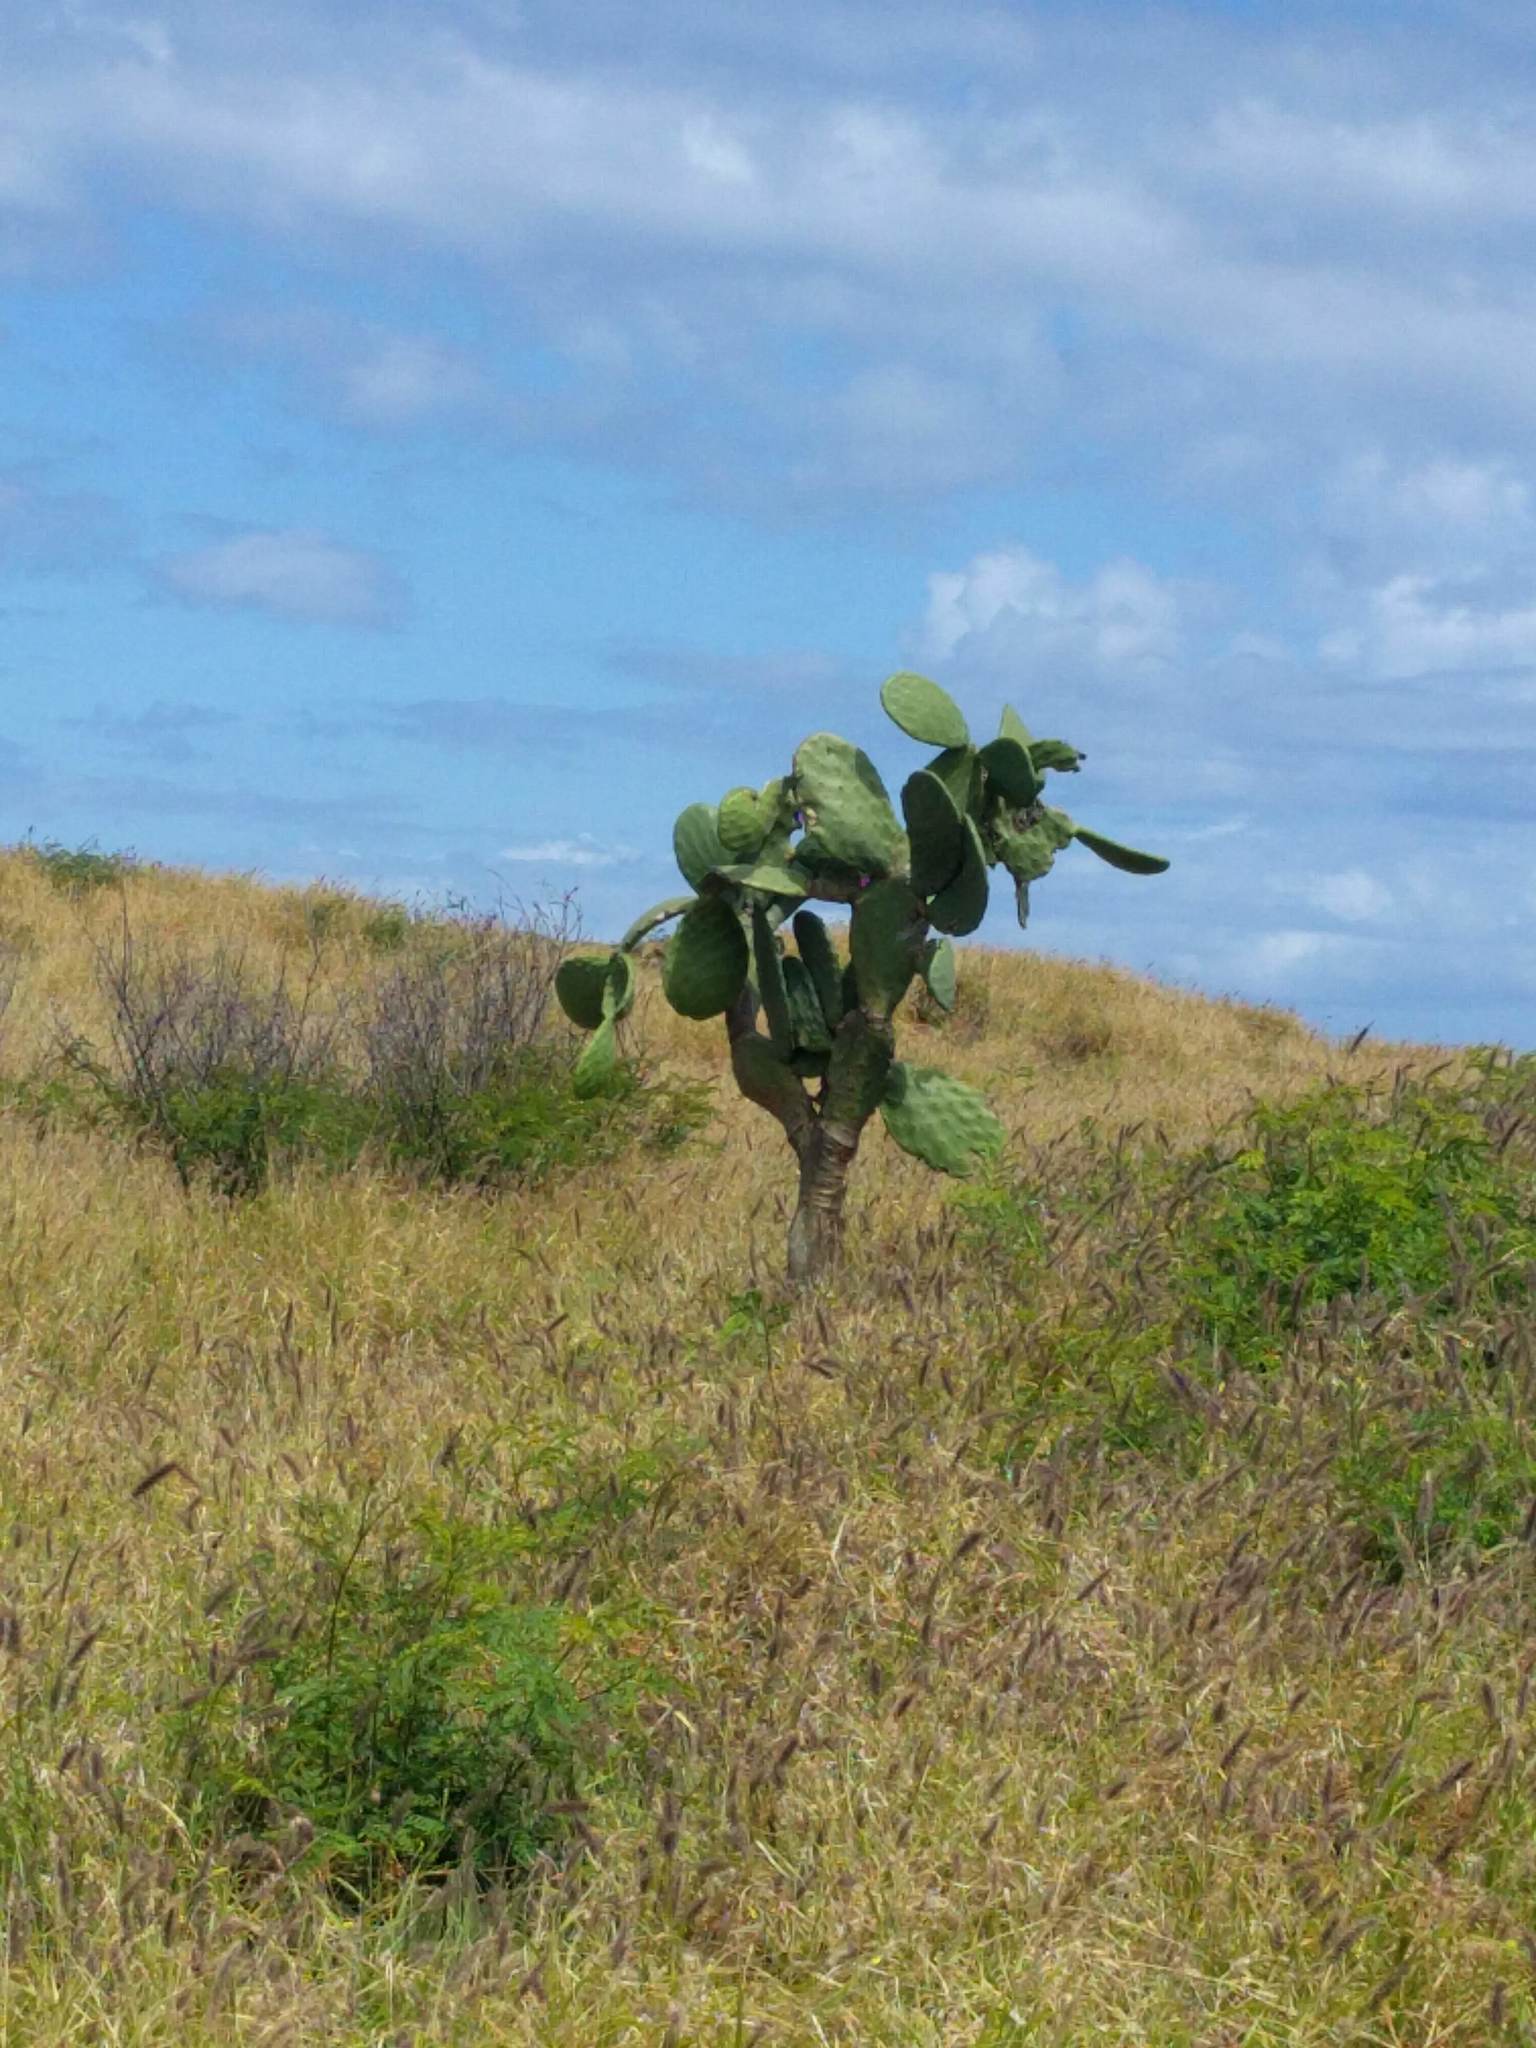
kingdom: Plantae
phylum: Tracheophyta
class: Magnoliopsida
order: Caryophyllales
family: Cactaceae
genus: Opuntia
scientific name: Opuntia ficus-indica
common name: Barbary fig
